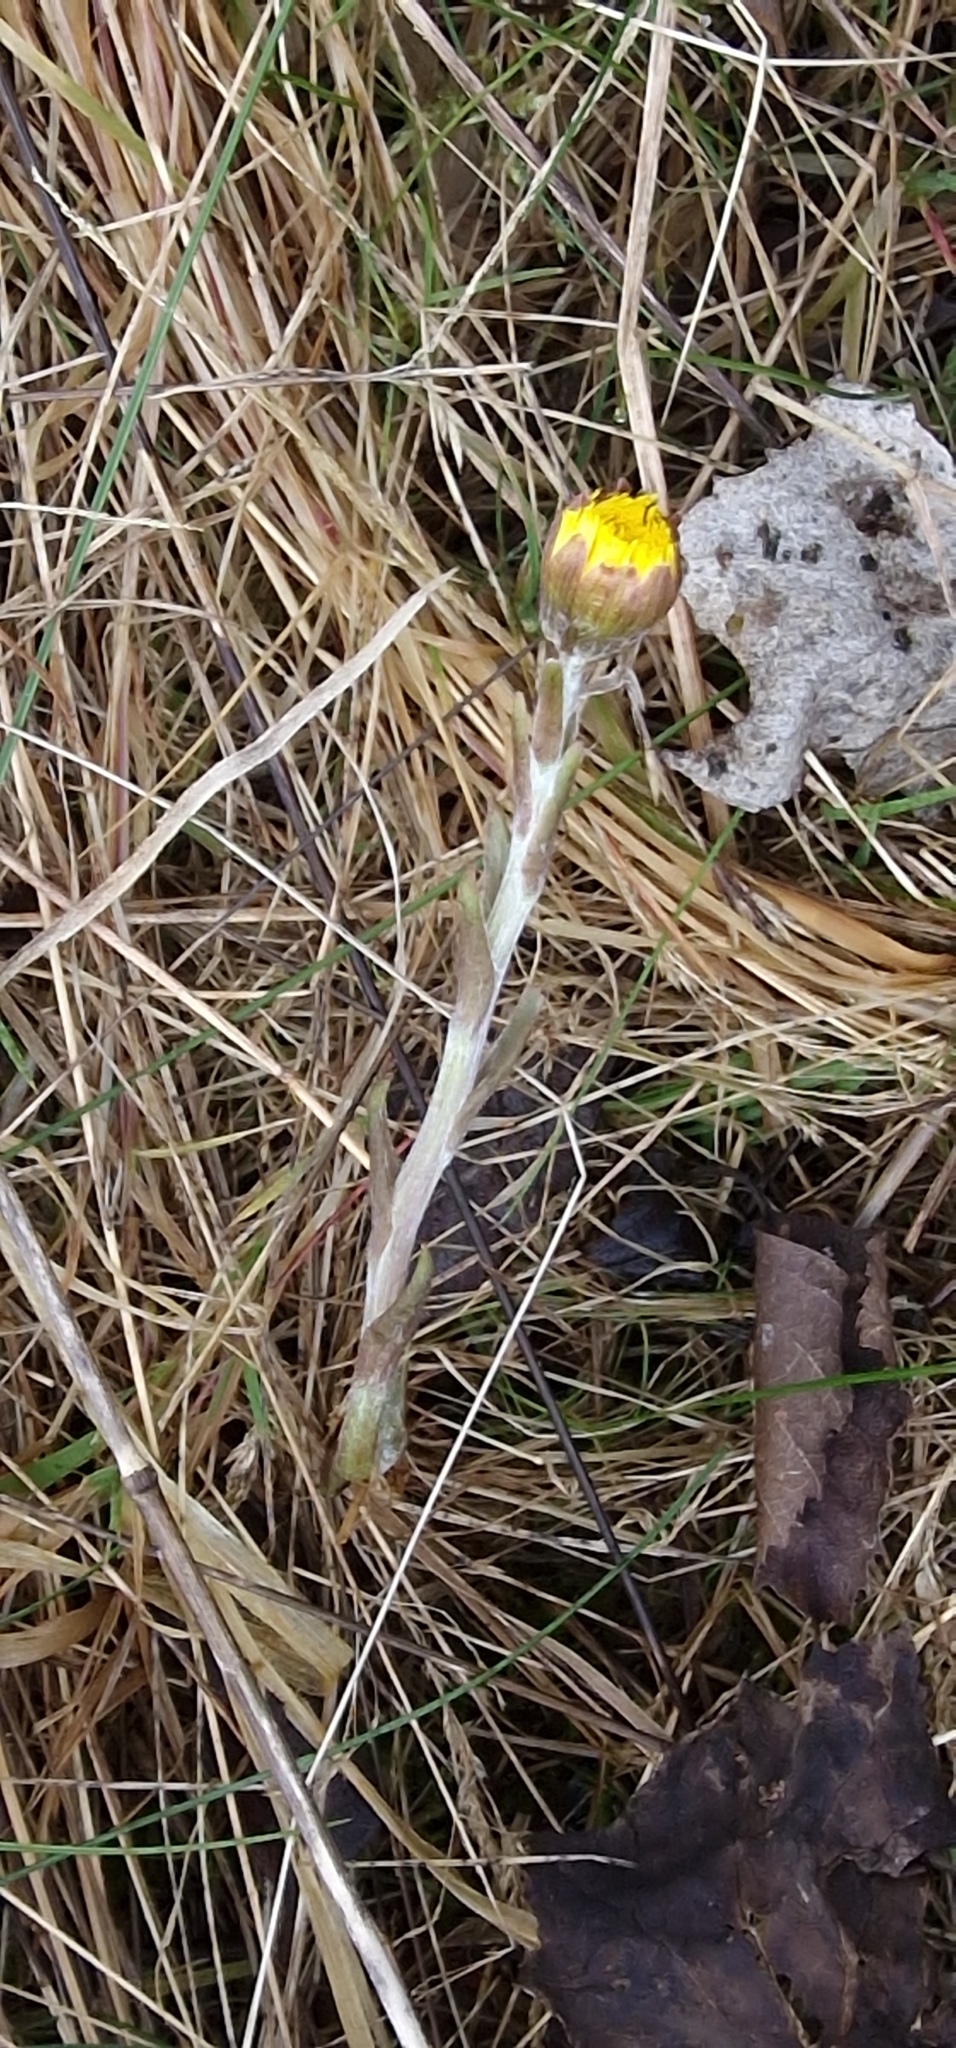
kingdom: Plantae
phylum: Tracheophyta
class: Magnoliopsida
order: Asterales
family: Asteraceae
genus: Tussilago
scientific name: Tussilago farfara
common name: Coltsfoot
